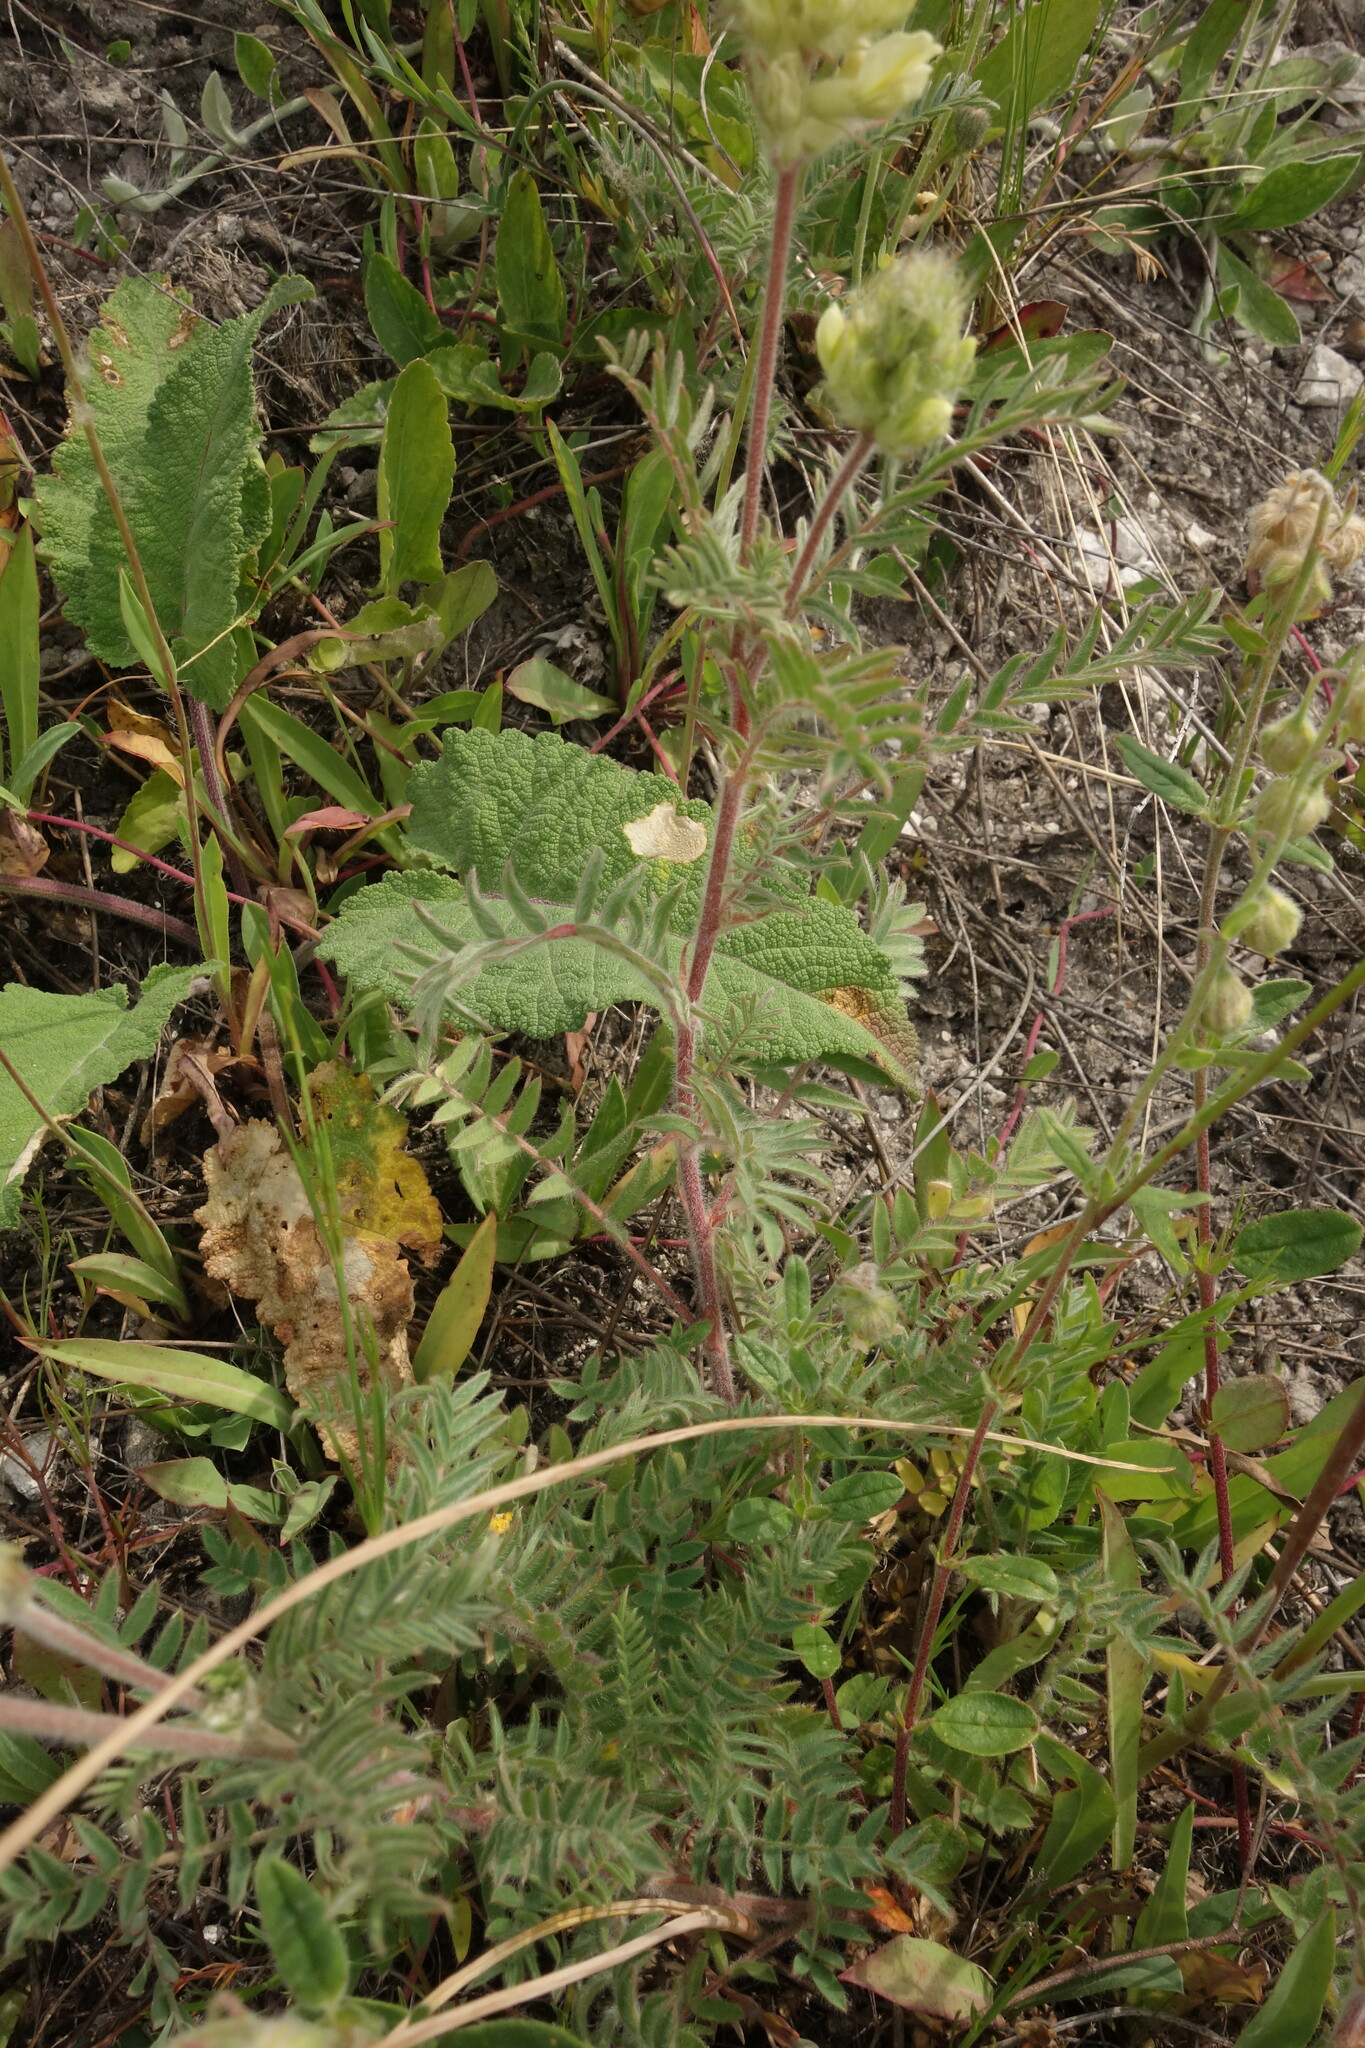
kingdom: Plantae
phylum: Tracheophyta
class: Magnoliopsida
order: Fabales
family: Fabaceae
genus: Oxytropis
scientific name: Oxytropis pilosa
